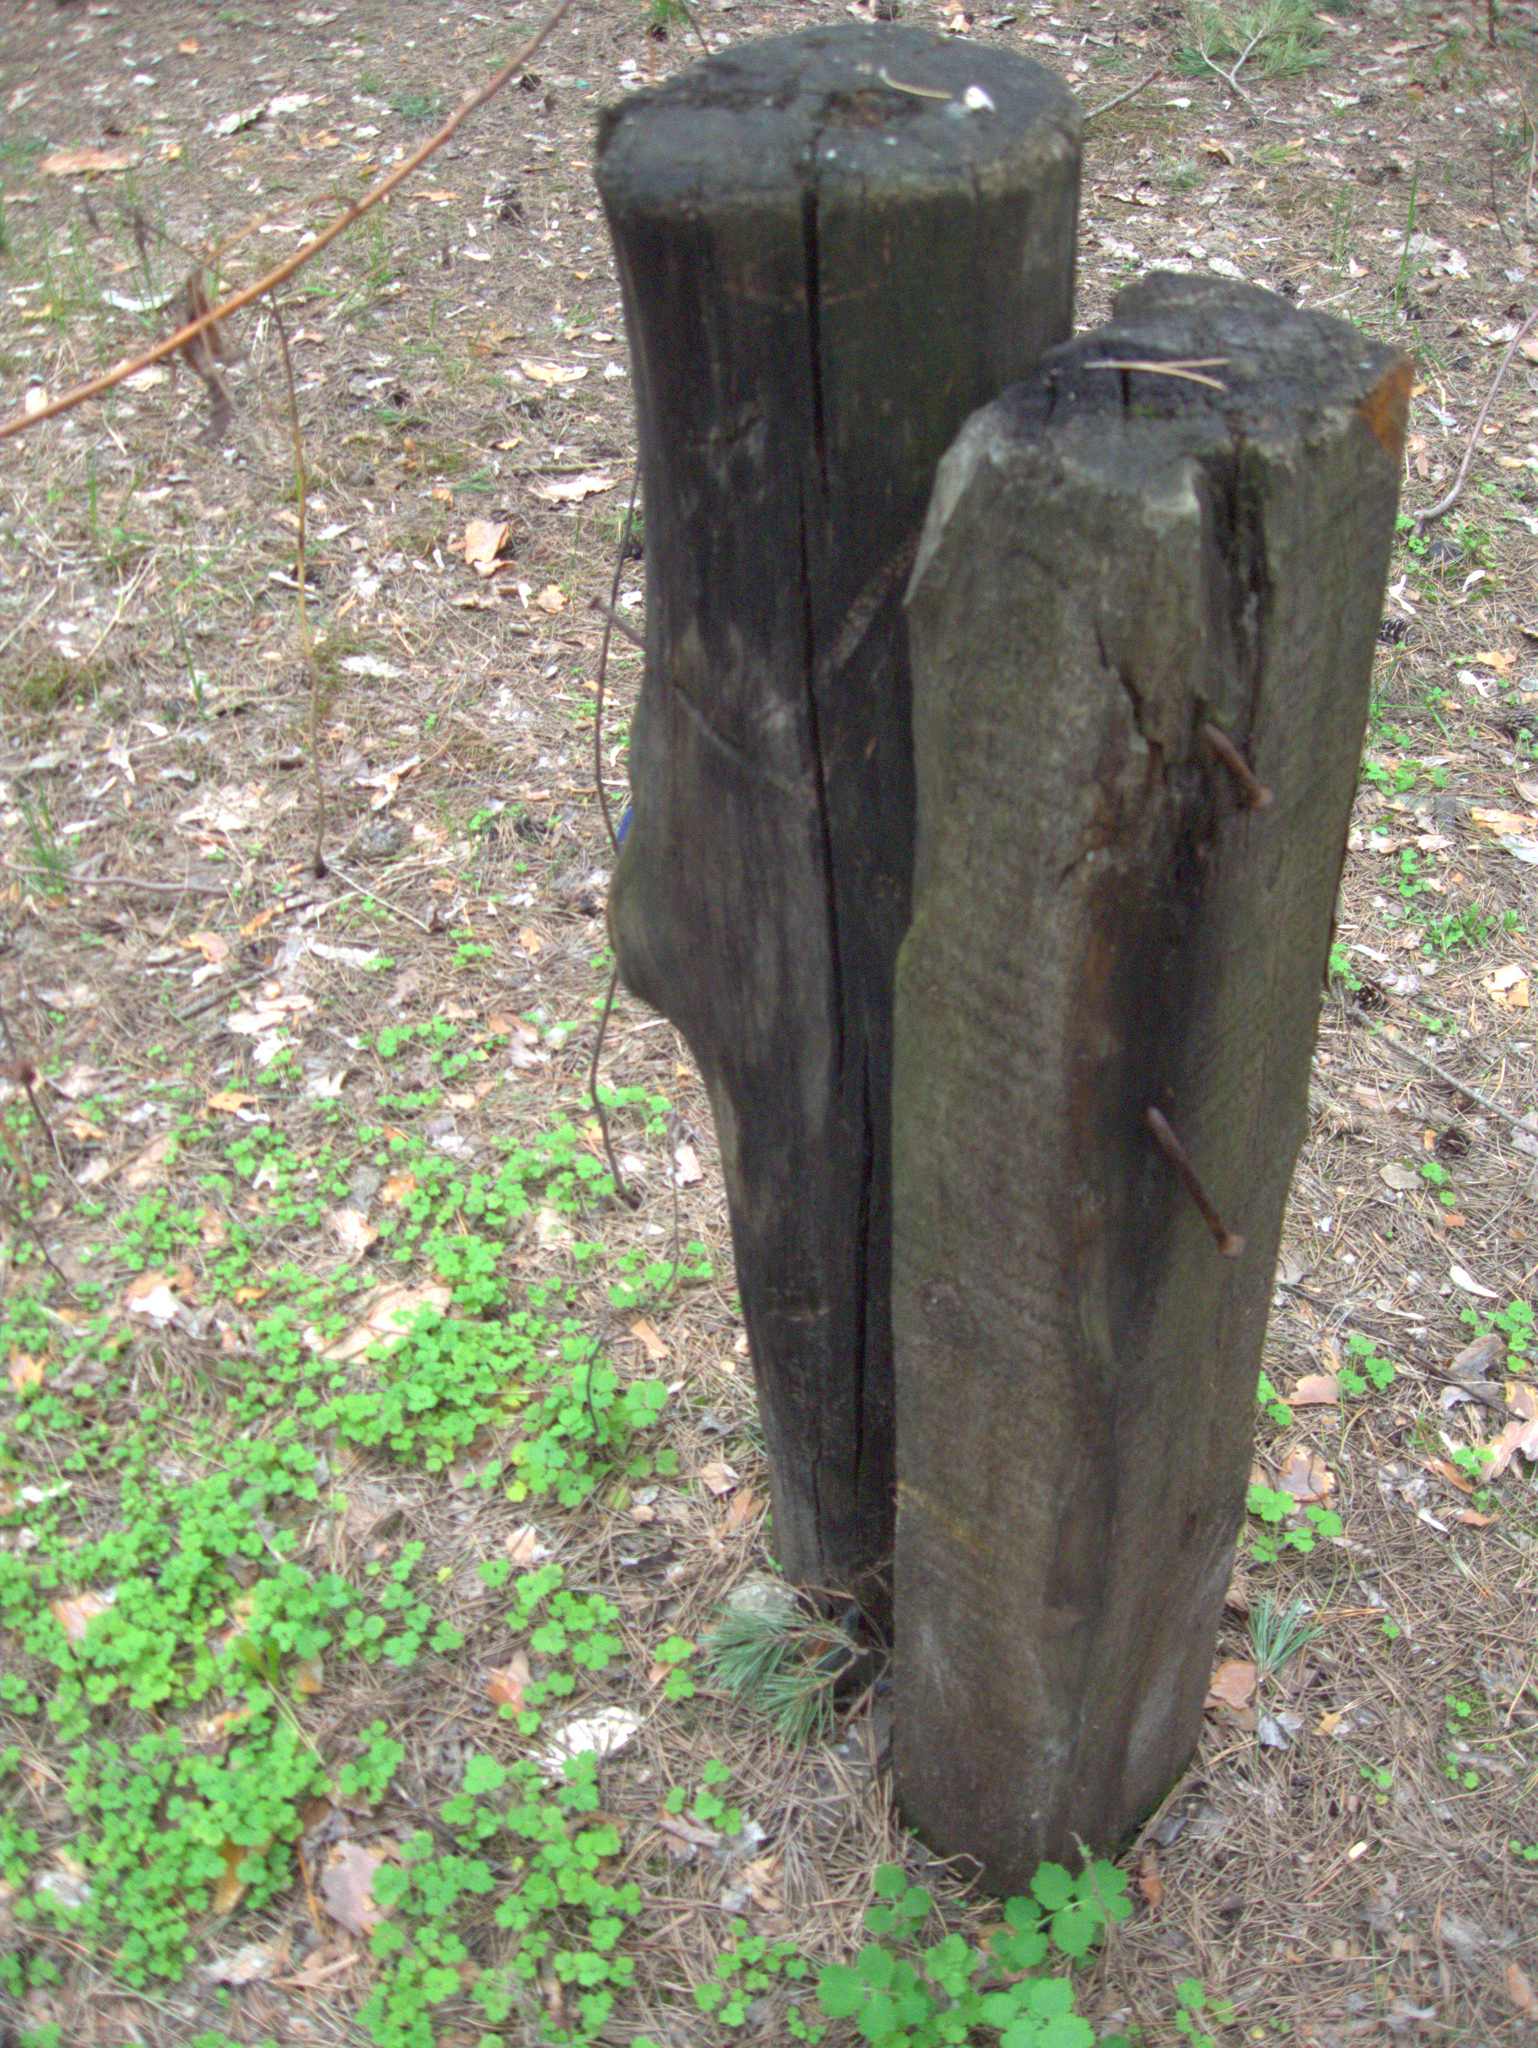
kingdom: Plantae
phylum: Tracheophyta
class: Magnoliopsida
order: Ranunculales
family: Papaveraceae
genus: Chelidonium
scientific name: Chelidonium majus
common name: Greater celandine
